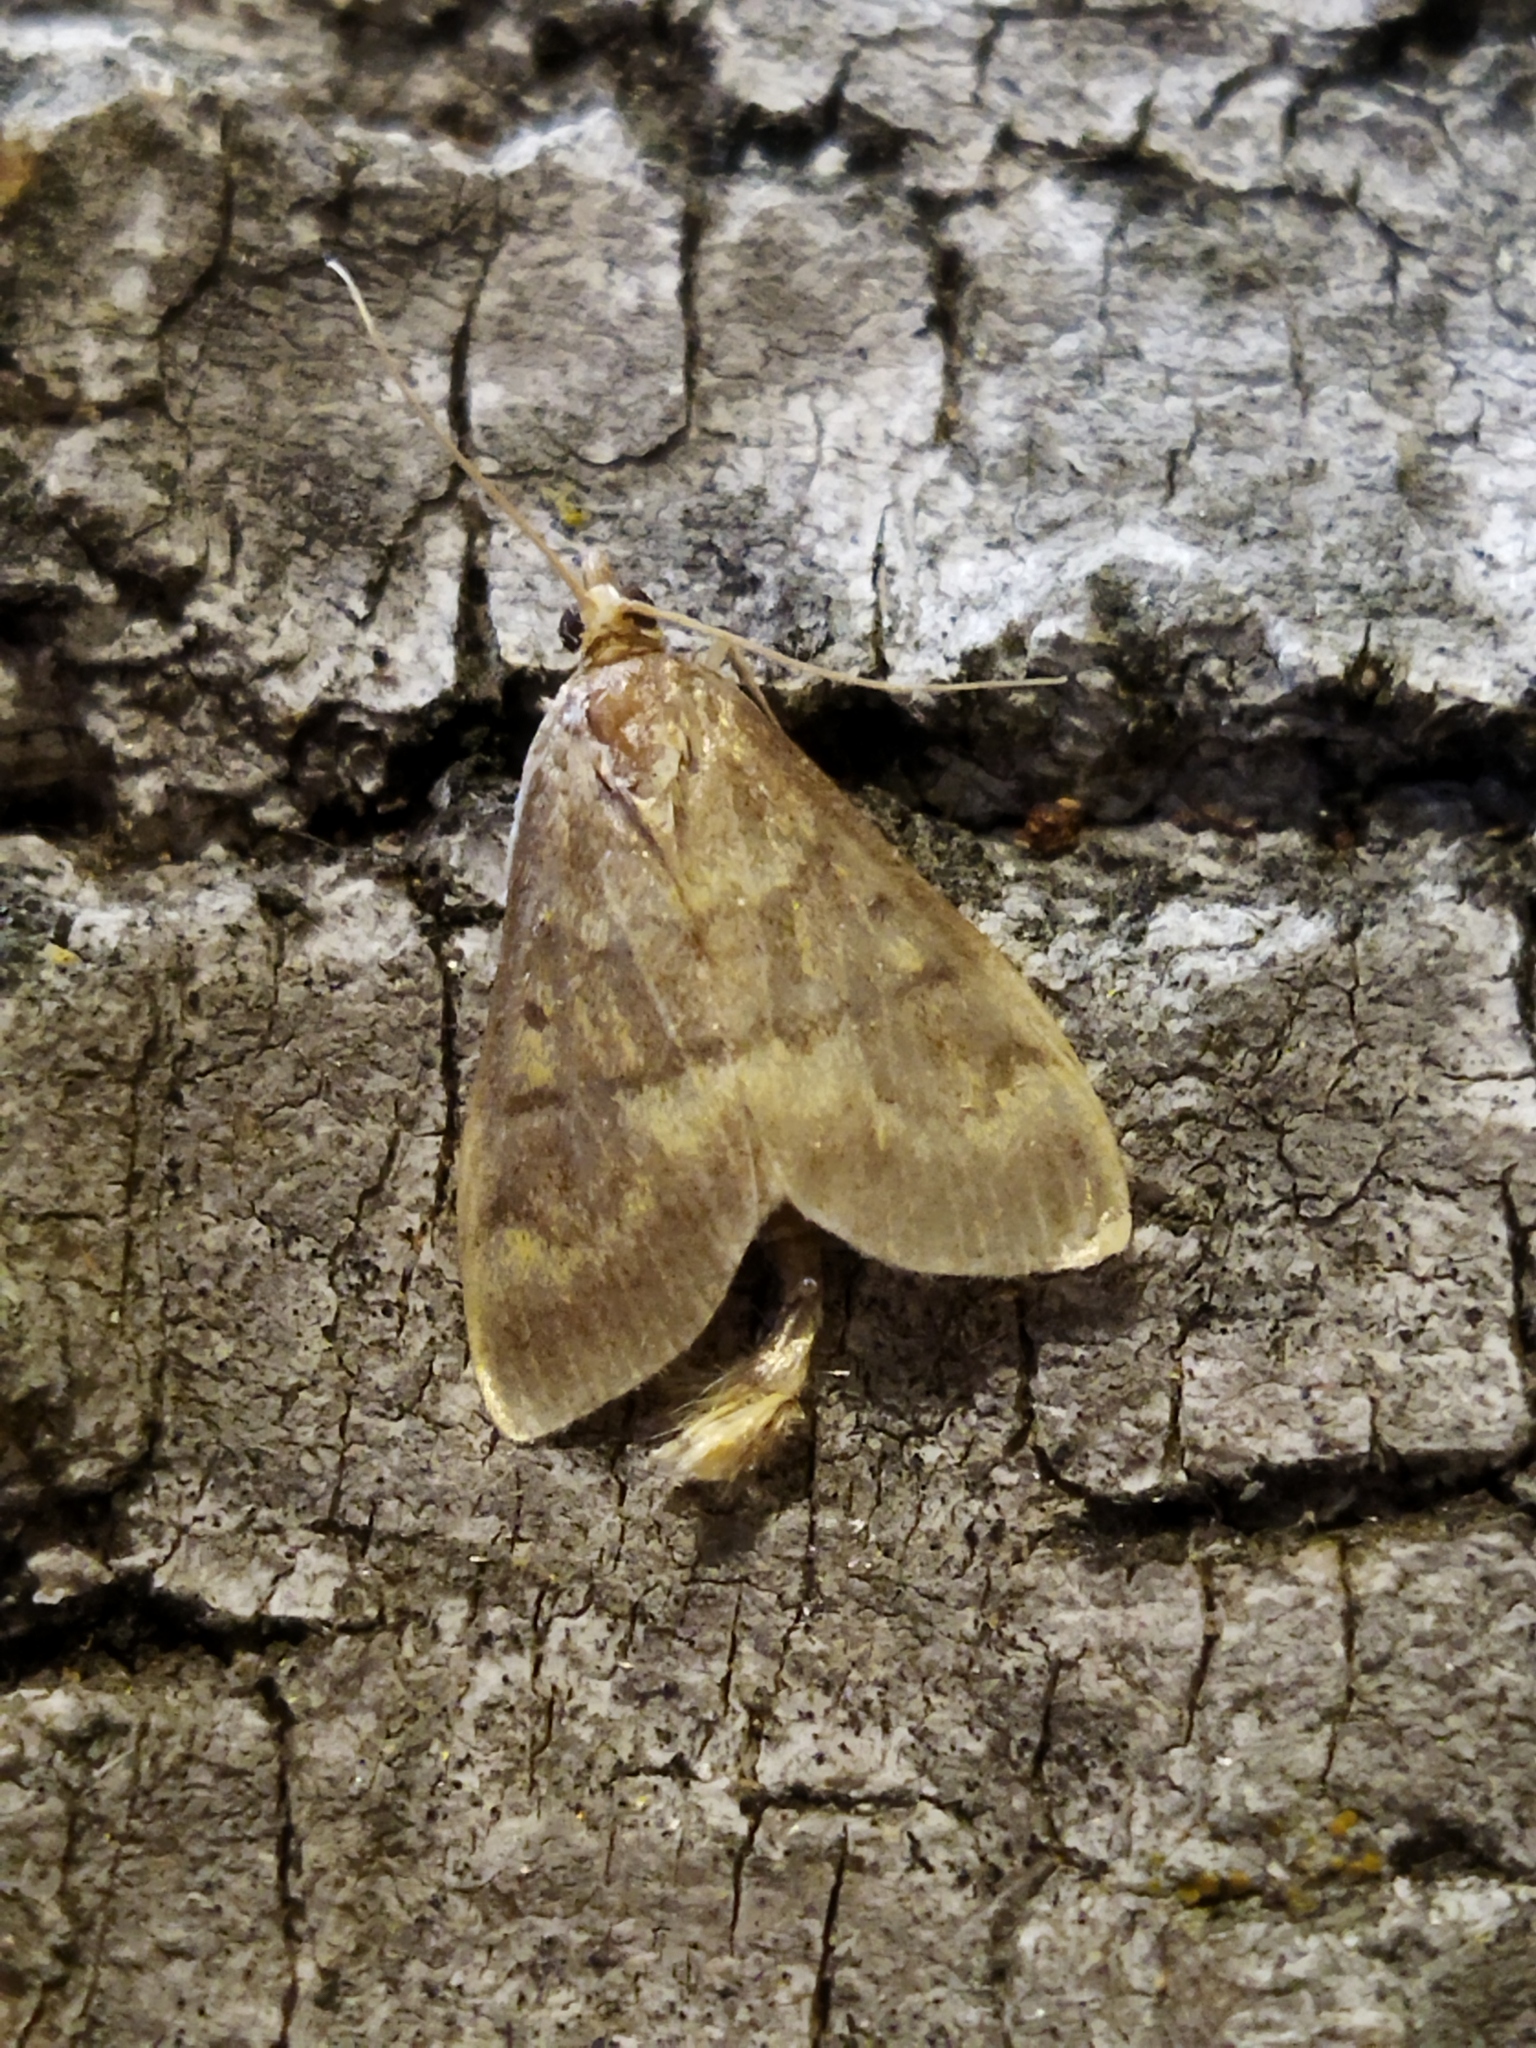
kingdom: Animalia
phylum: Arthropoda
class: Insecta
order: Lepidoptera
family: Crambidae
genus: Ostrinia
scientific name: Ostrinia nubilalis
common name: European corn borer
